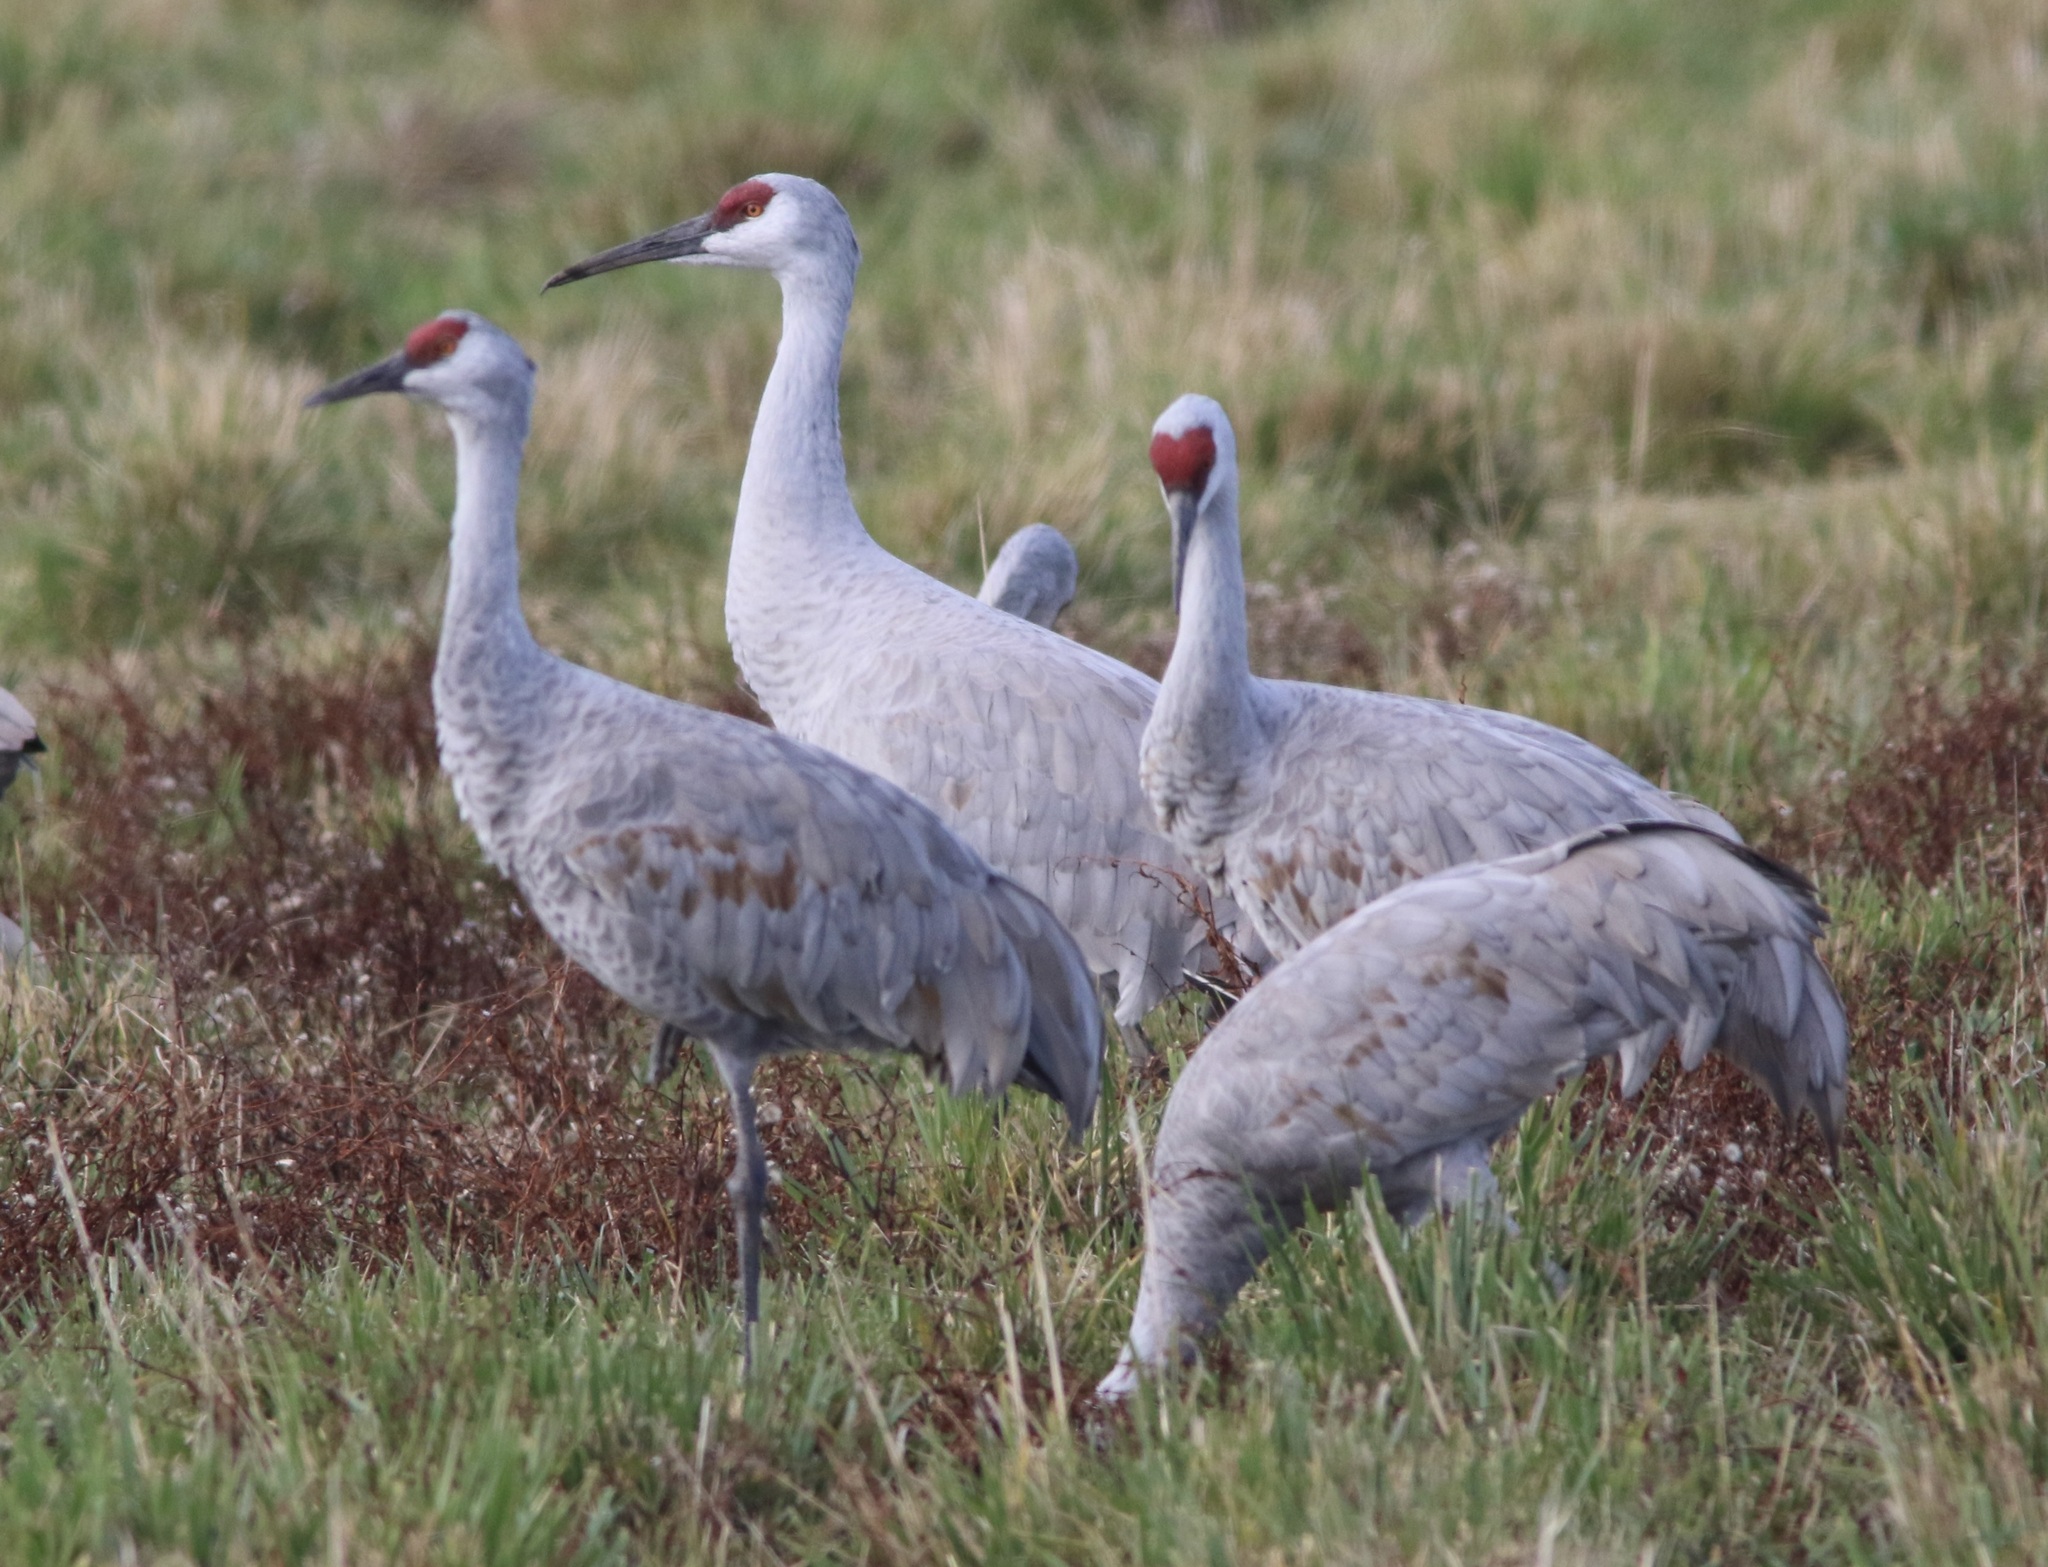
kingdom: Animalia
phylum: Chordata
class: Aves
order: Gruiformes
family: Gruidae
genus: Grus
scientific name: Grus canadensis
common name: Sandhill crane
